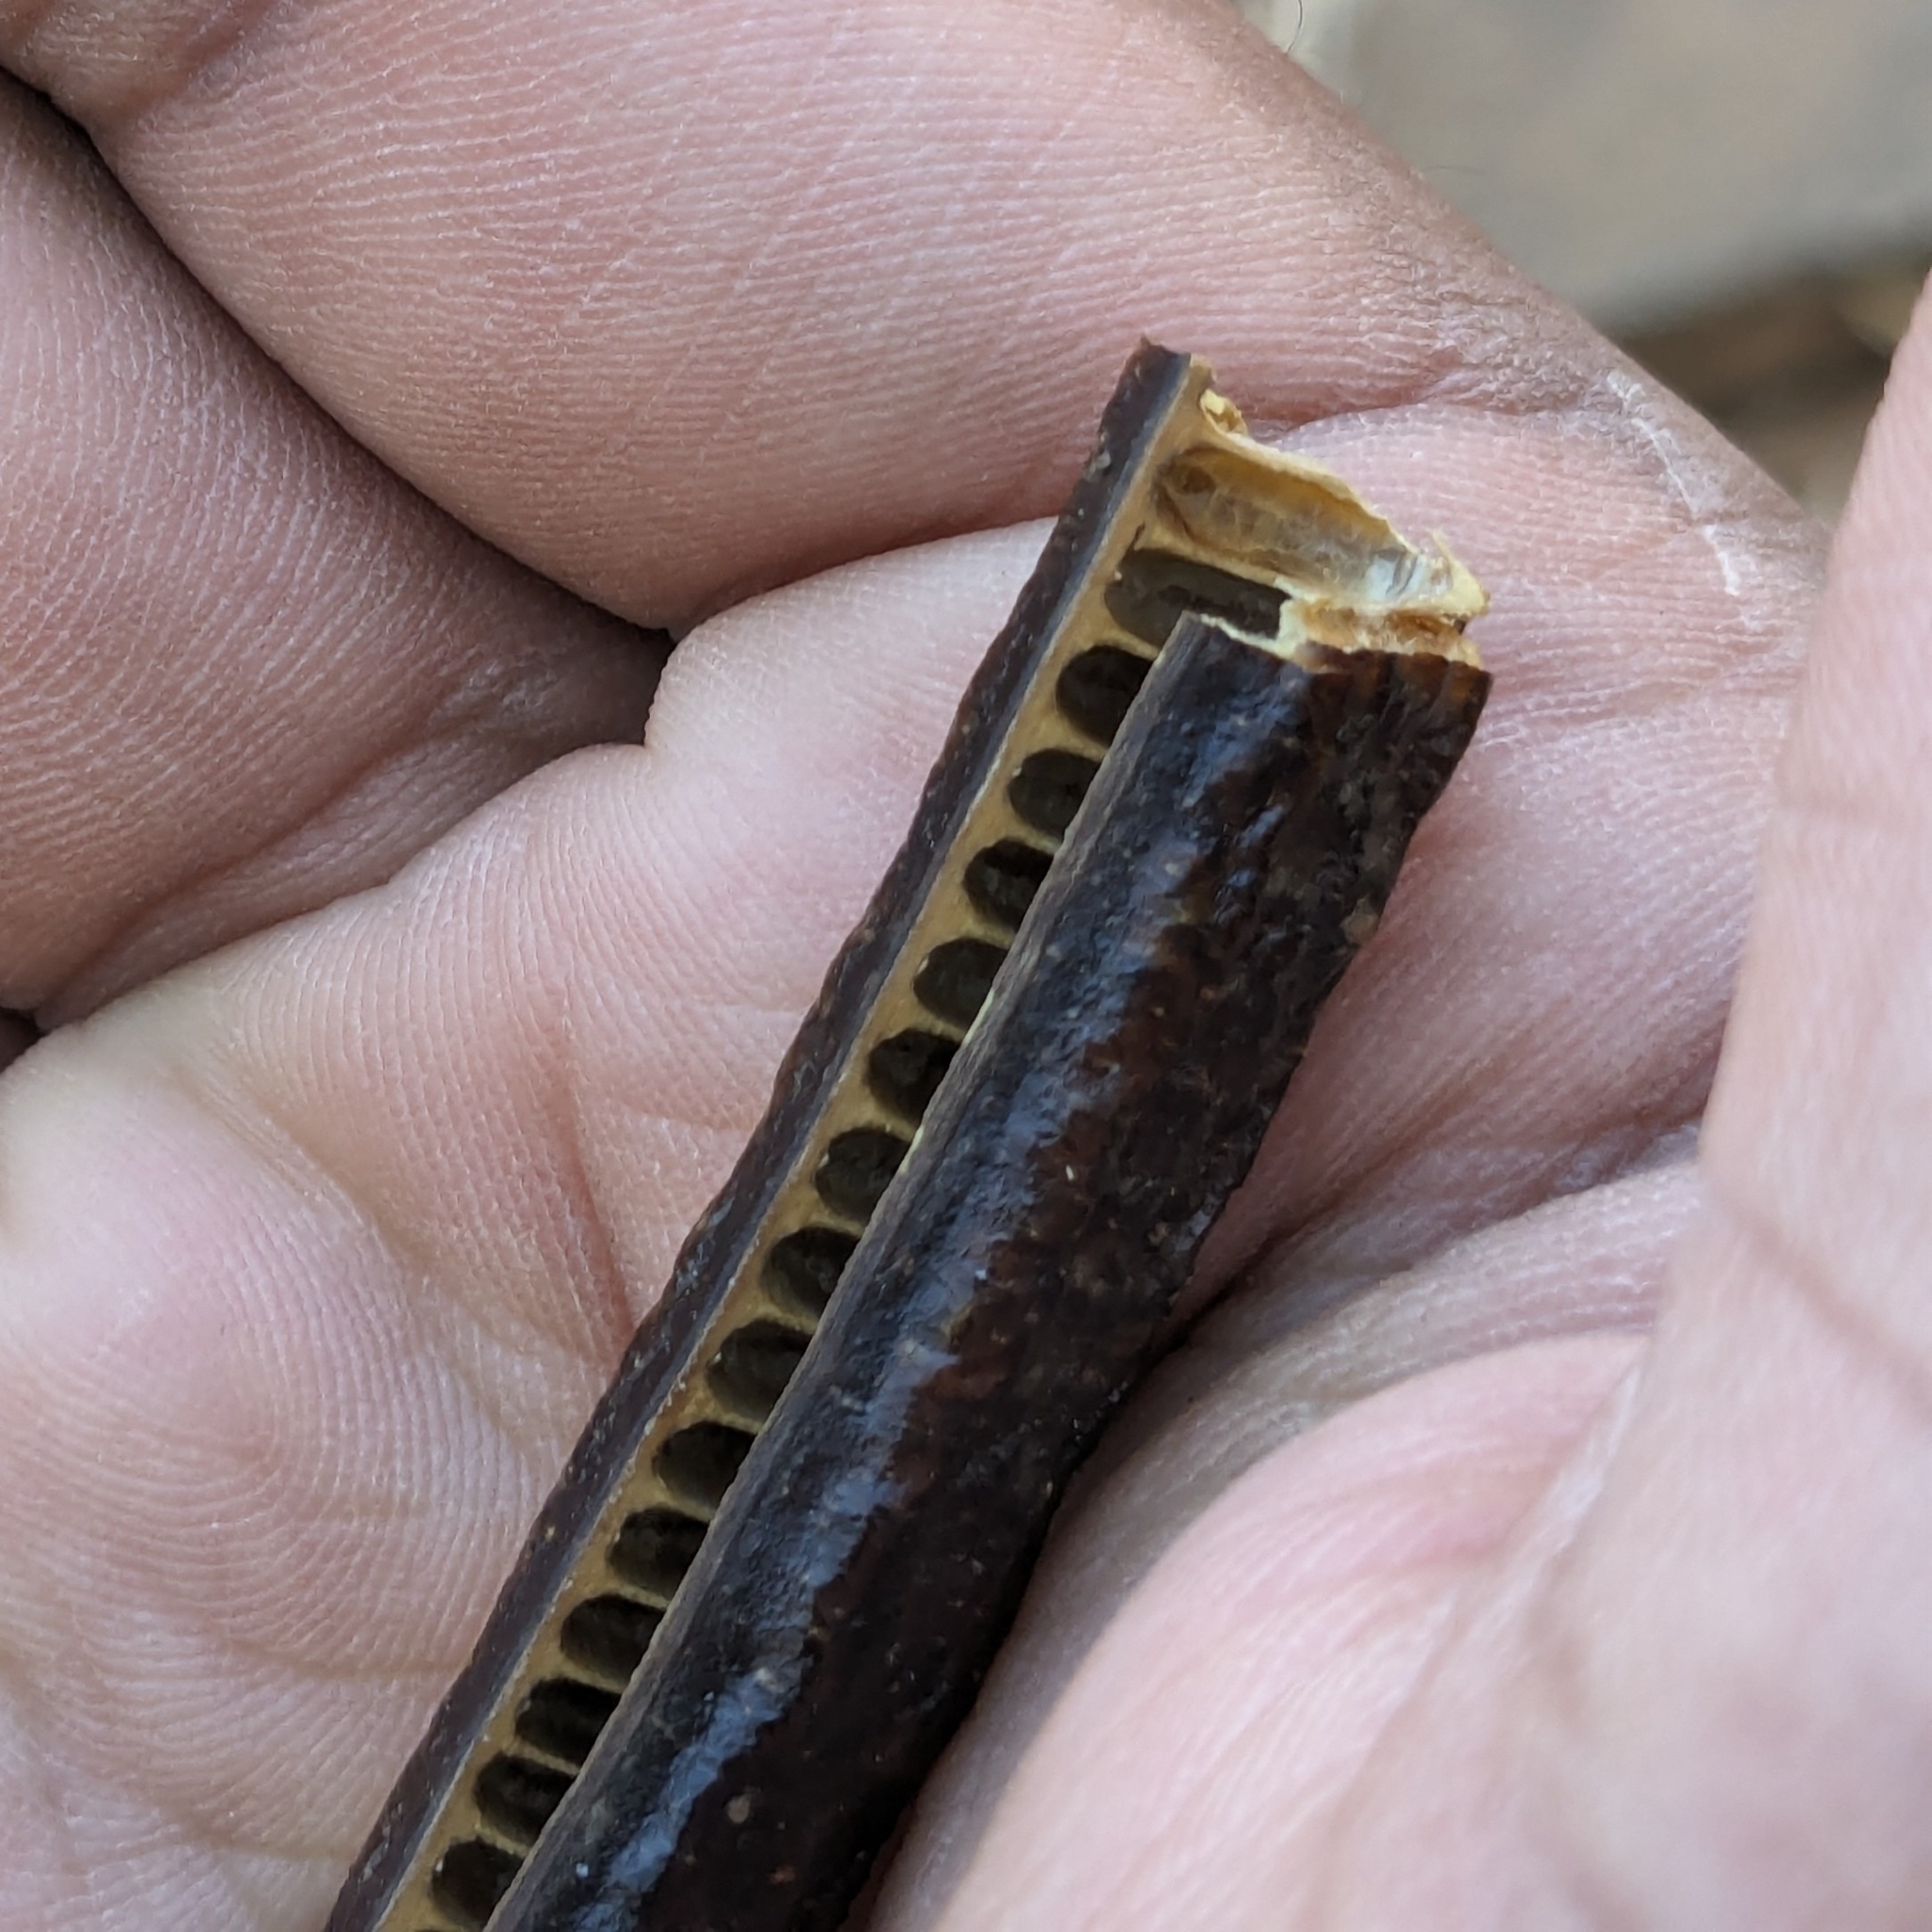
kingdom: Plantae
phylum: Tracheophyta
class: Magnoliopsida
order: Fabales
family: Fabaceae
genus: Cassia
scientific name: Cassia fistula
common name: Golden shower
